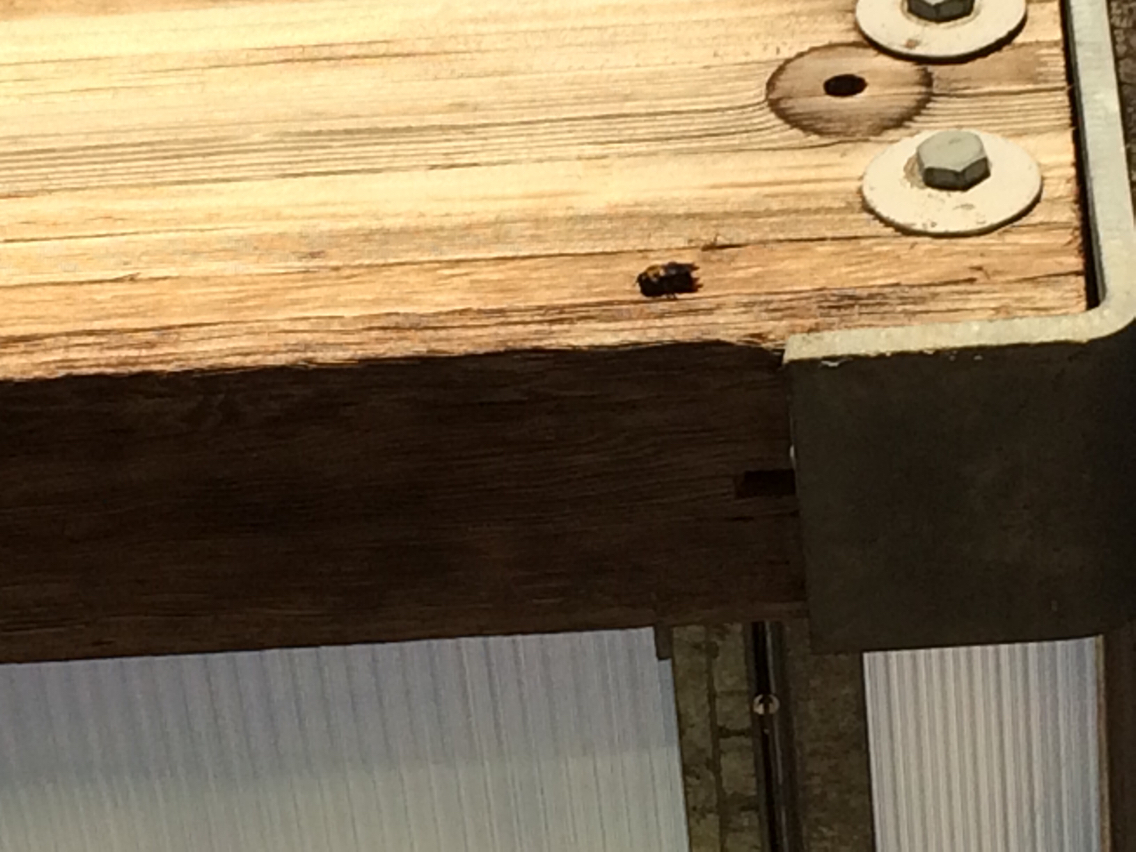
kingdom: Animalia
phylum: Arthropoda
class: Insecta
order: Hymenoptera
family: Apidae
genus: Xylocopa
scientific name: Xylocopa virginica
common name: Carpenter bee
